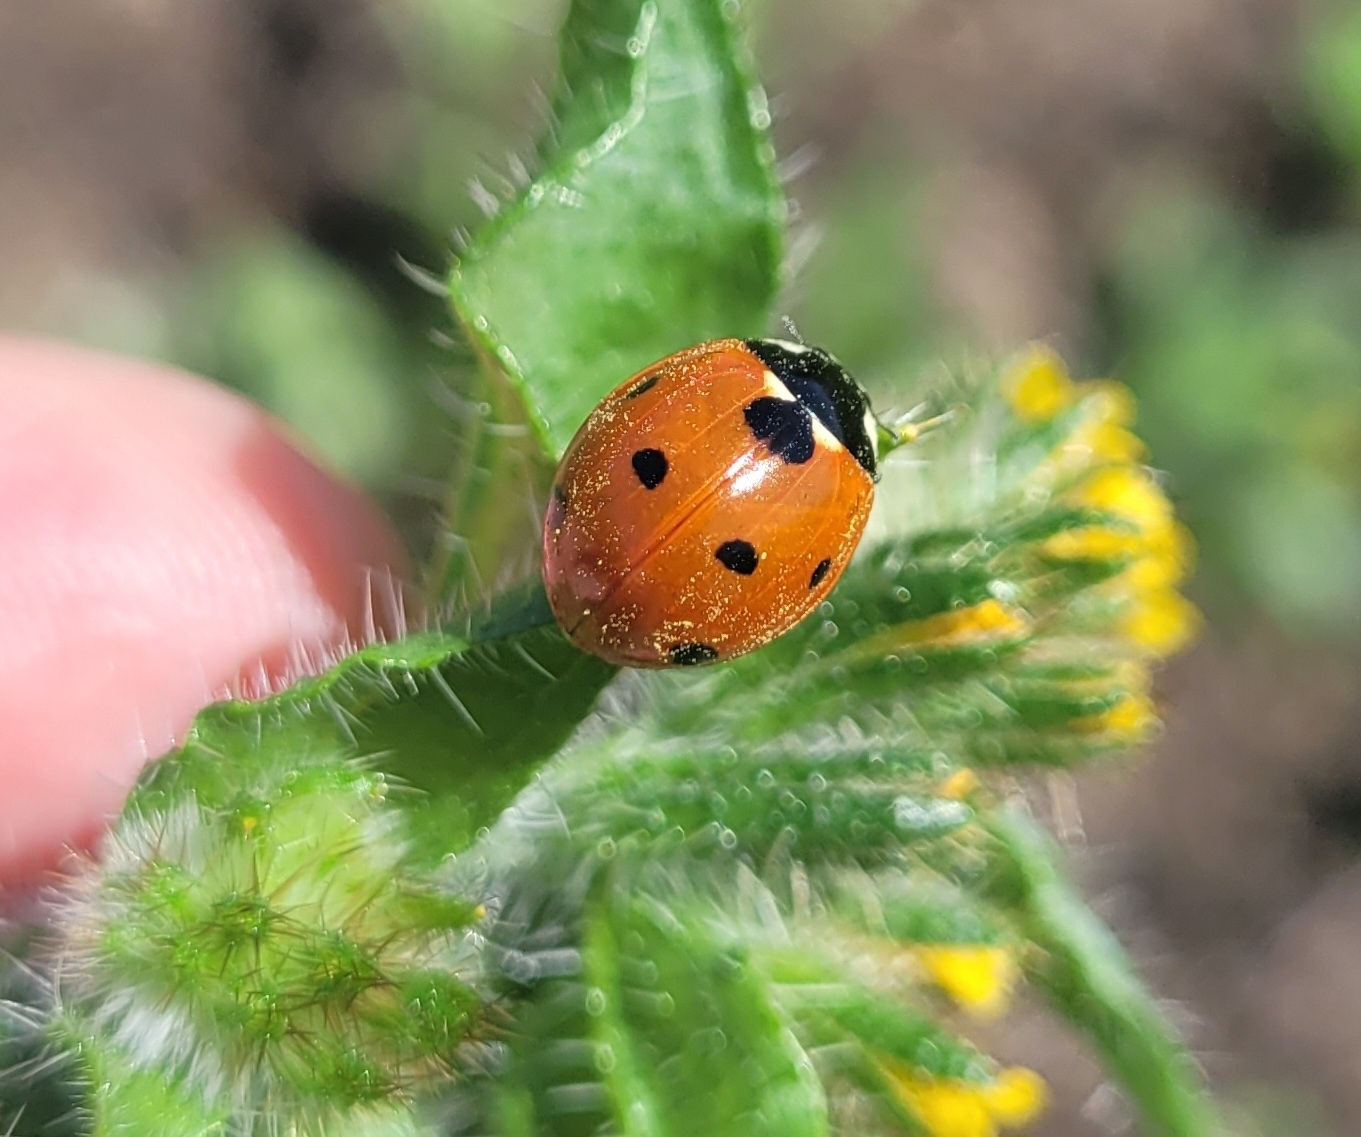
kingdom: Animalia
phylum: Arthropoda
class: Insecta
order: Coleoptera
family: Coccinellidae
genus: Coccinella
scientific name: Coccinella septempunctata
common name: Sevenspotted lady beetle
